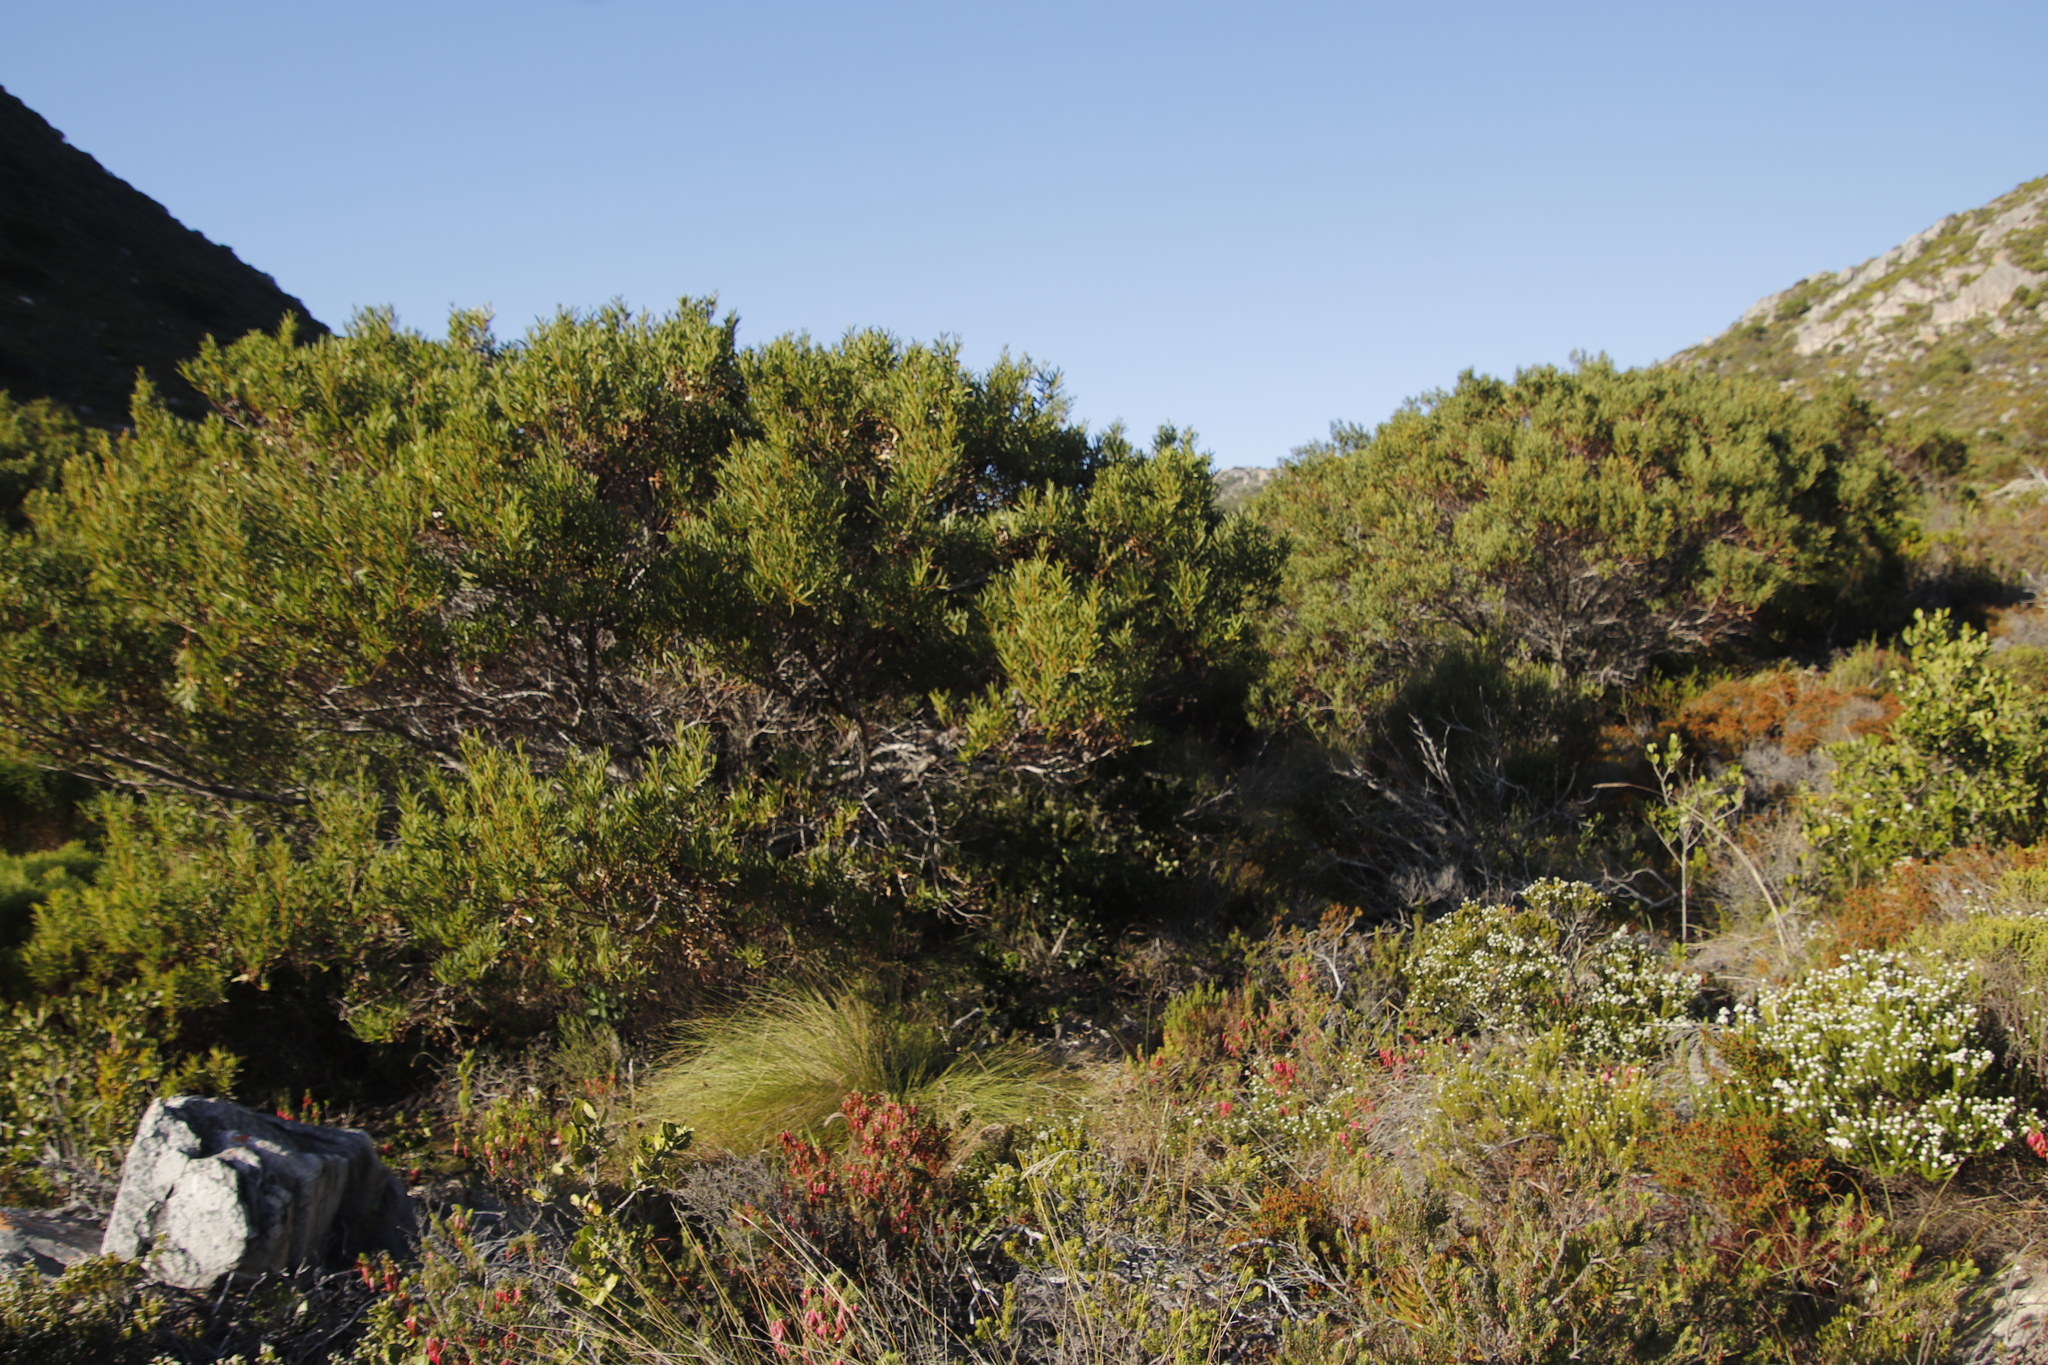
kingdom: Plantae
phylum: Tracheophyta
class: Magnoliopsida
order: Fabales
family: Fabaceae
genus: Acacia
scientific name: Acacia cyclops
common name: Coastal wattle
